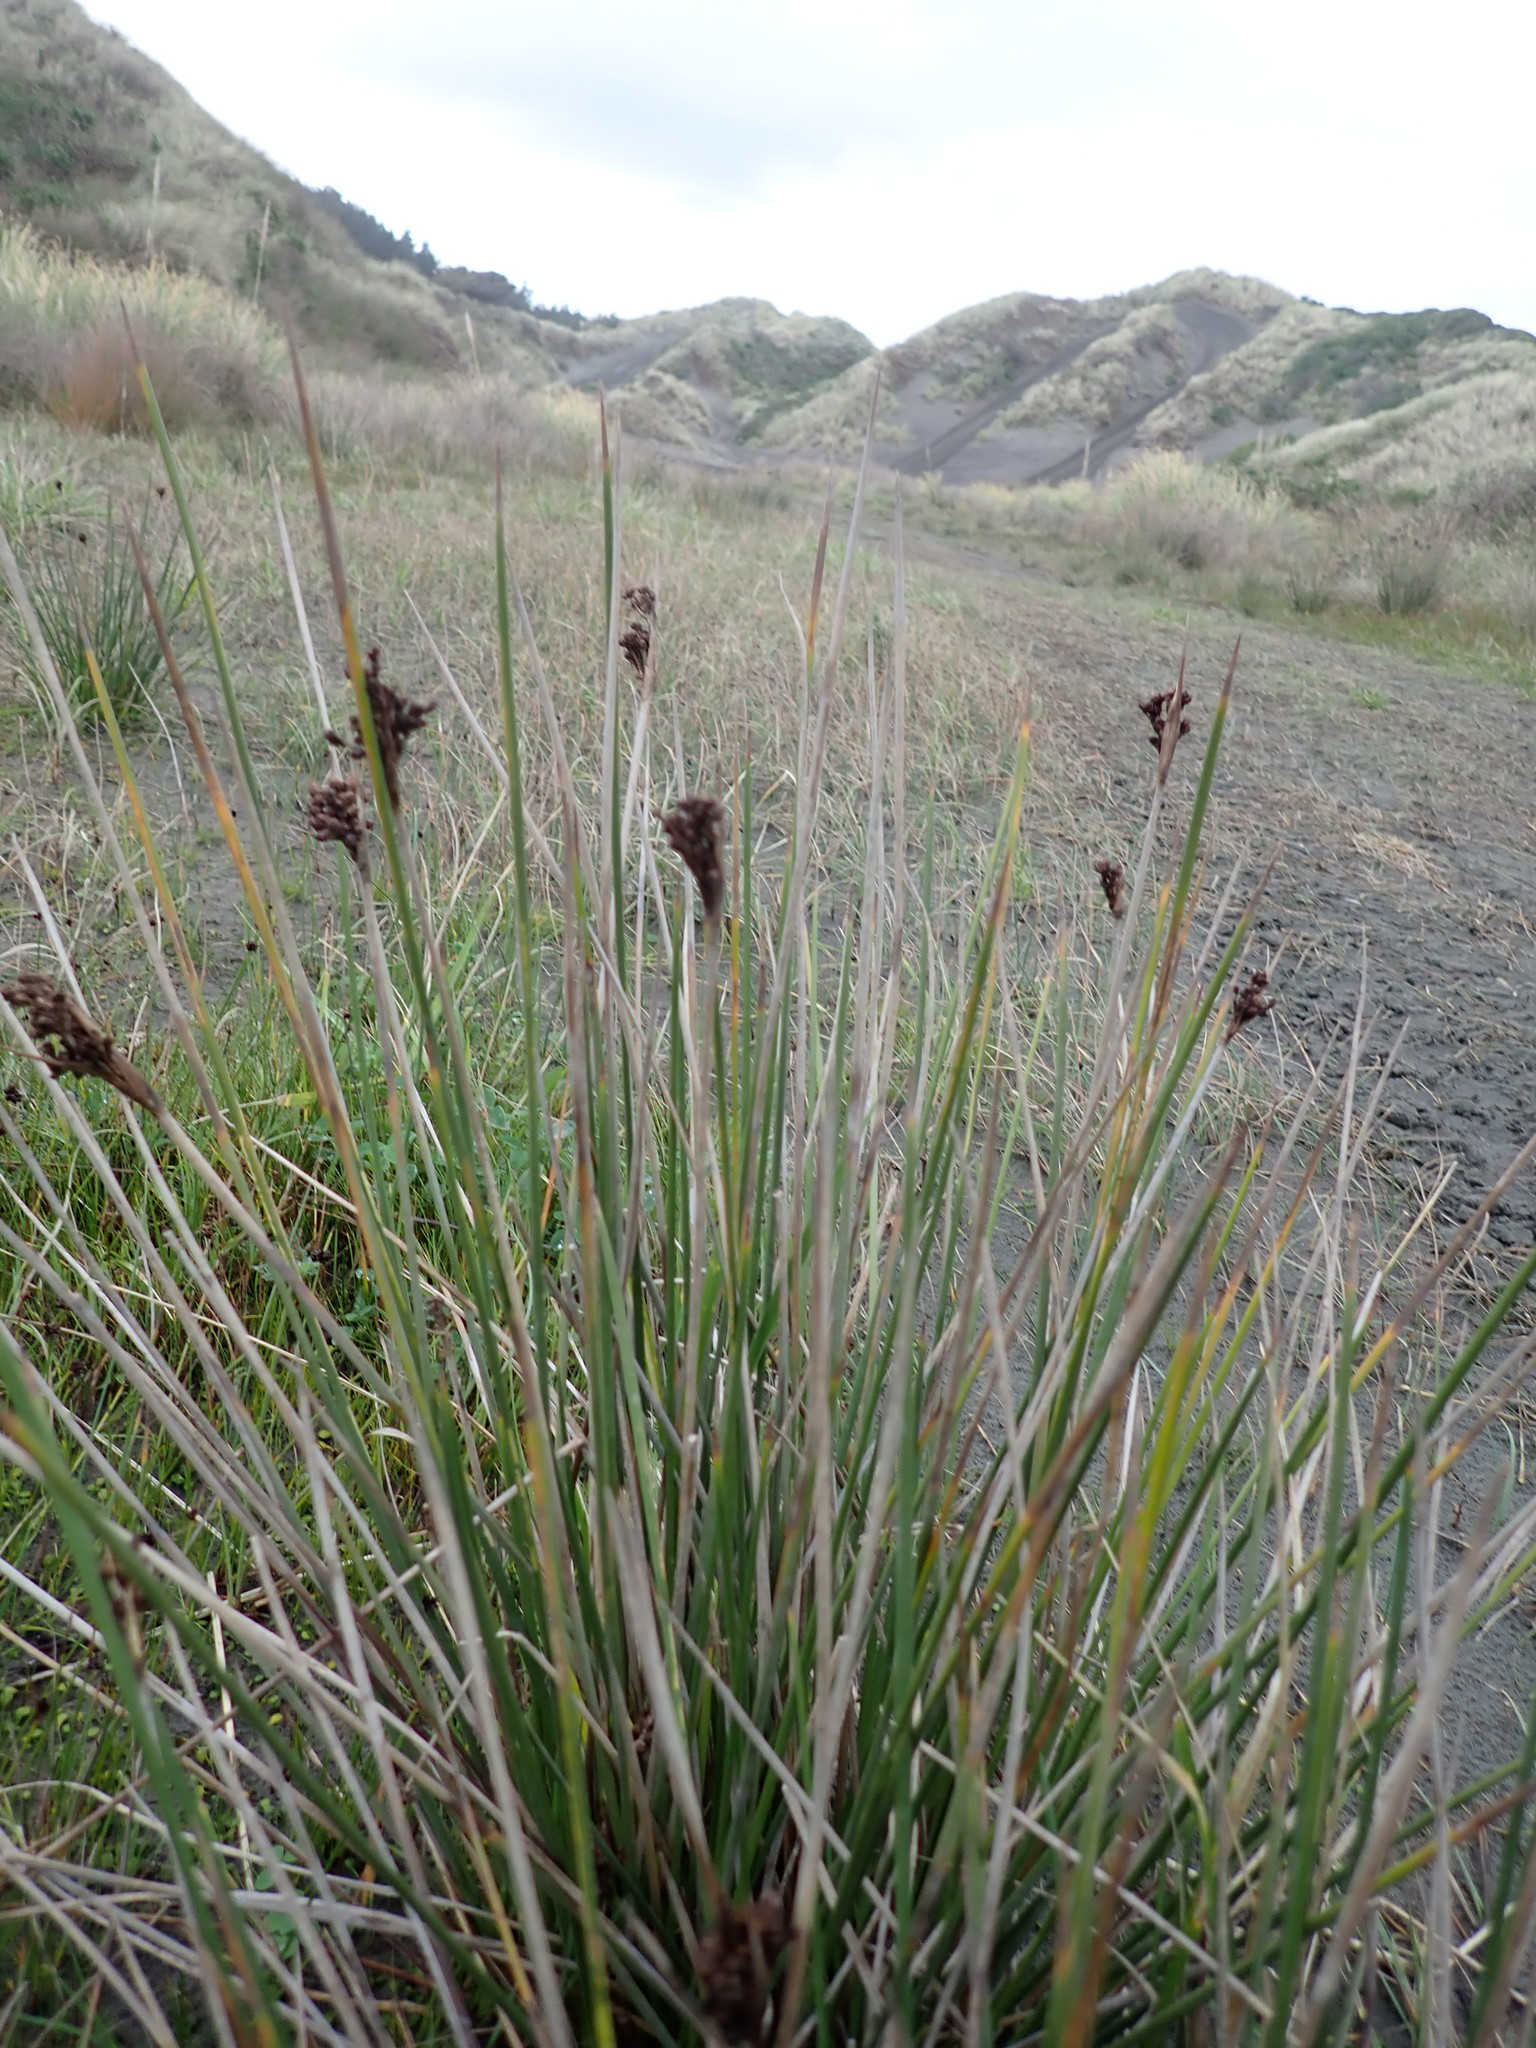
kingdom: Plantae
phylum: Tracheophyta
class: Liliopsida
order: Poales
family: Juncaceae
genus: Juncus
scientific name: Juncus acutus
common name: Sharp rush
